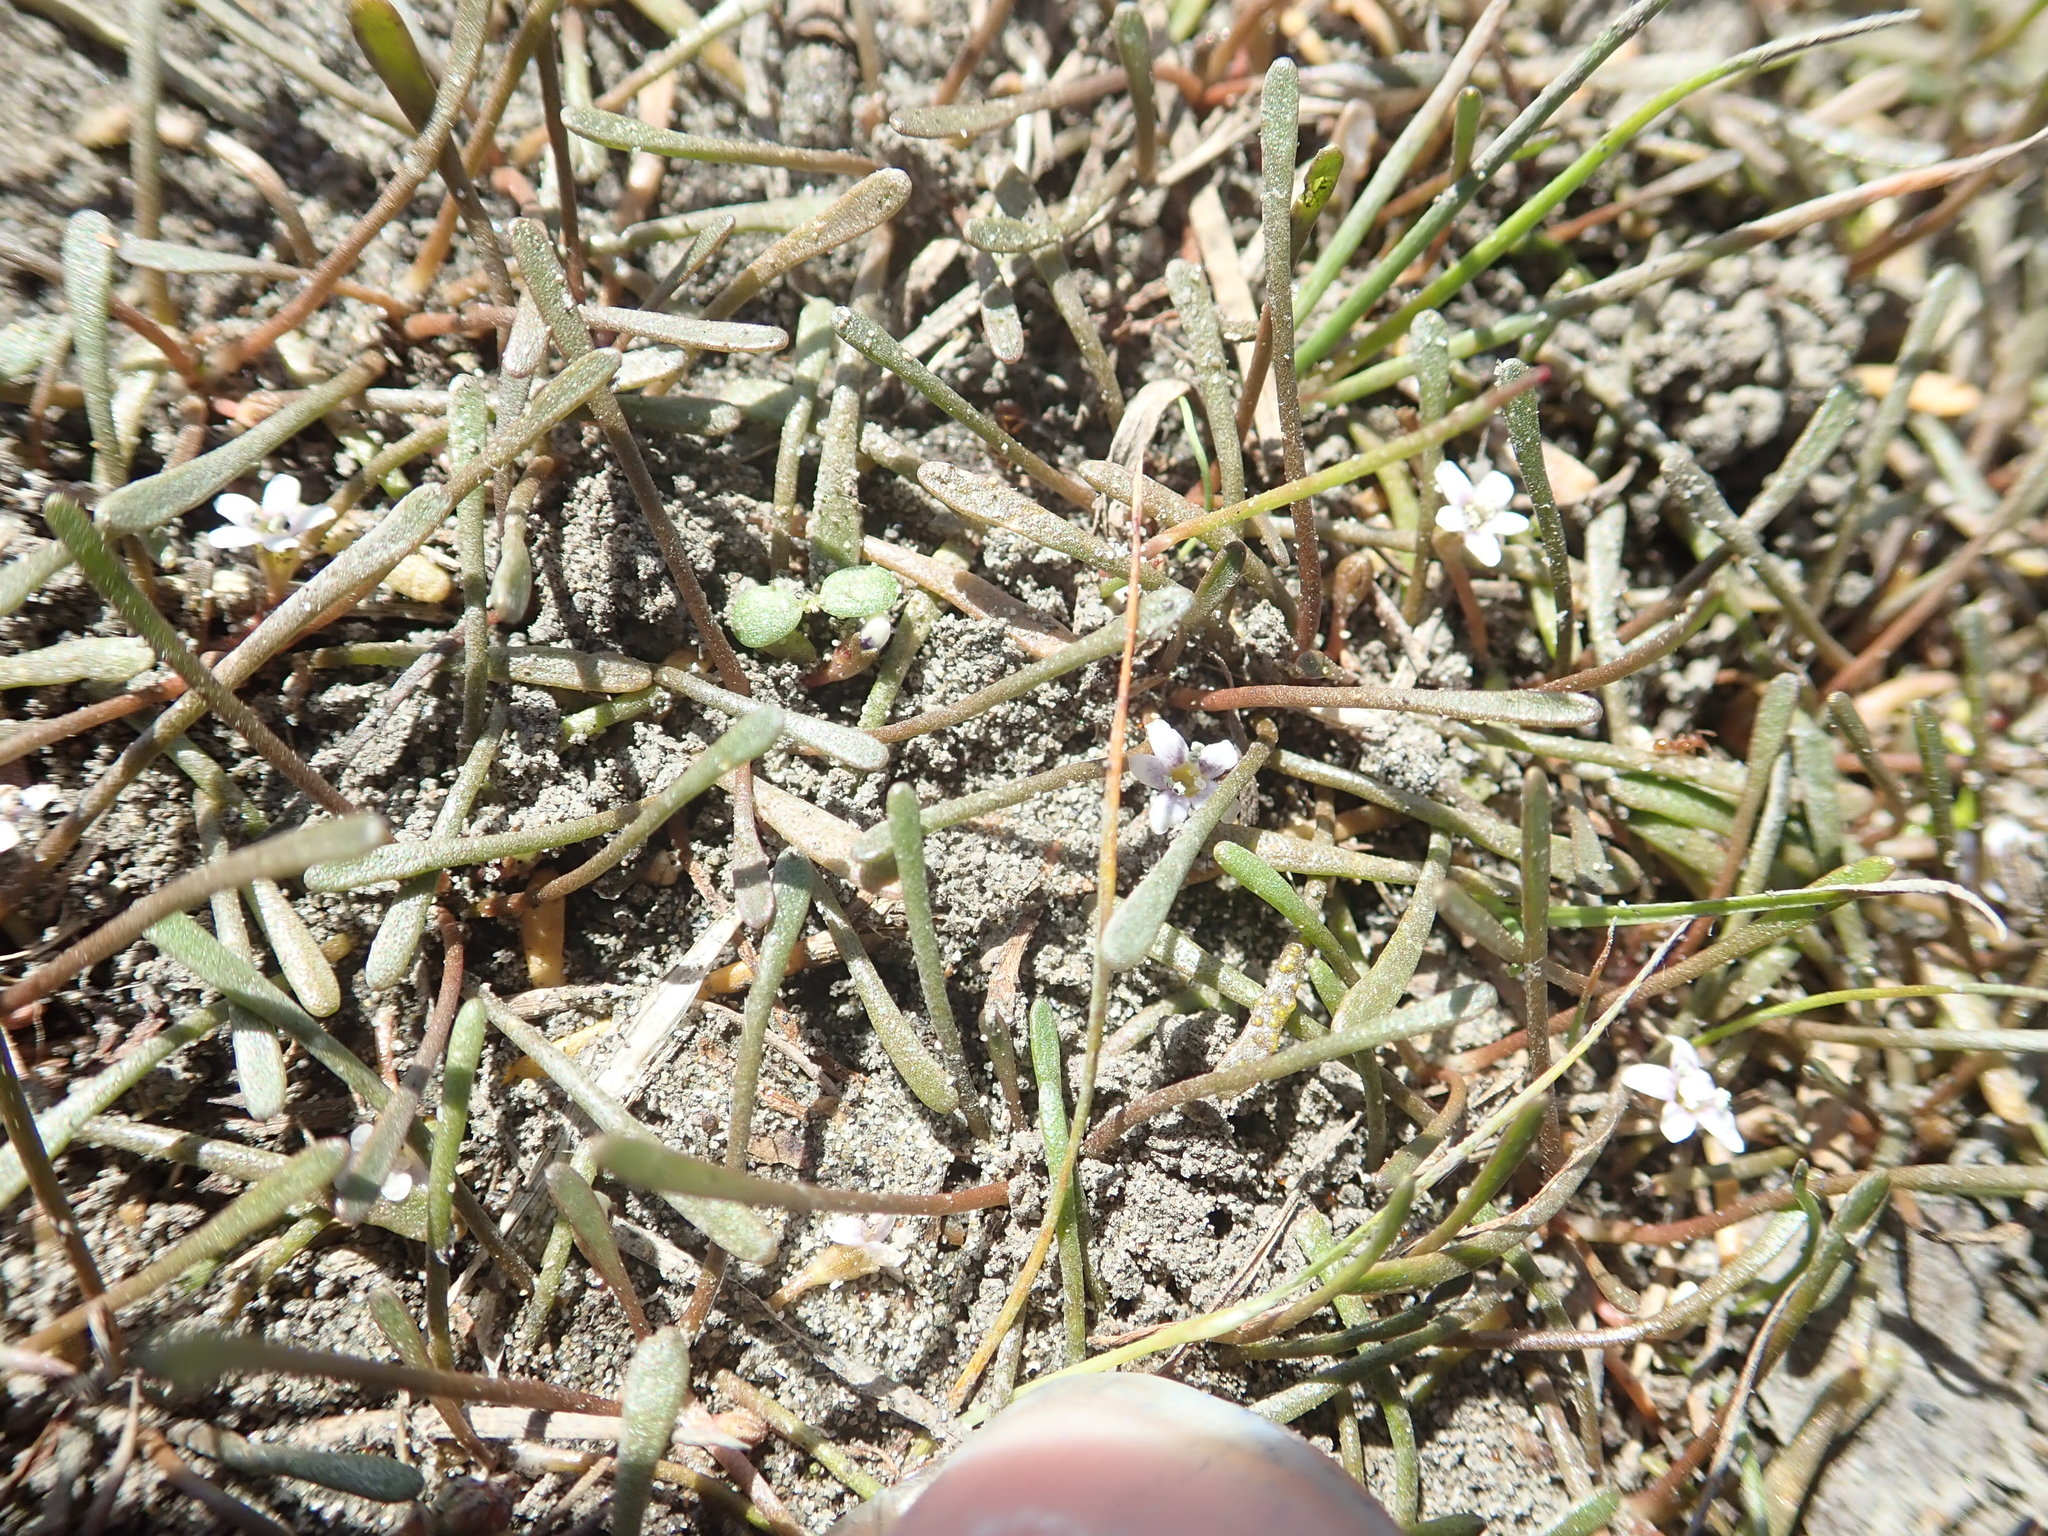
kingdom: Plantae
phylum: Tracheophyta
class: Magnoliopsida
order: Lamiales
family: Scrophulariaceae
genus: Limosella
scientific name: Limosella australis
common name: Welsh mudwort
